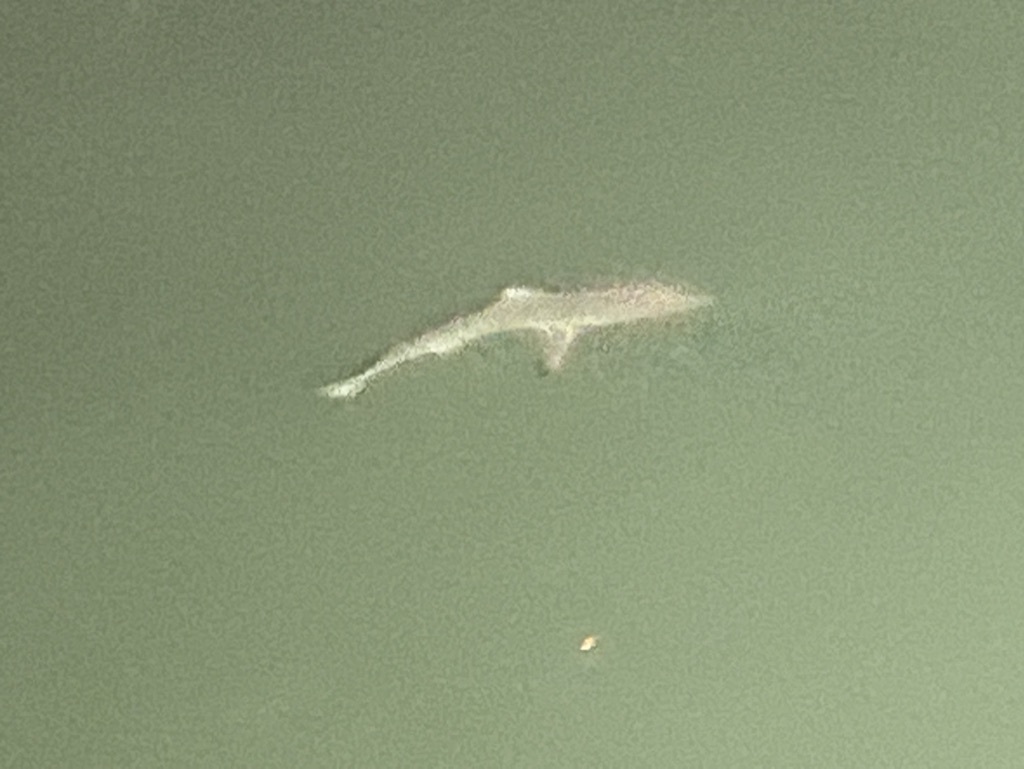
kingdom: Animalia
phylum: Chordata
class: Elasmobranchii
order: Carcharhiniformes
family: Carcharhinidae
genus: Carcharhinus
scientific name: Carcharhinus limbatus
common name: Blacktip shark
